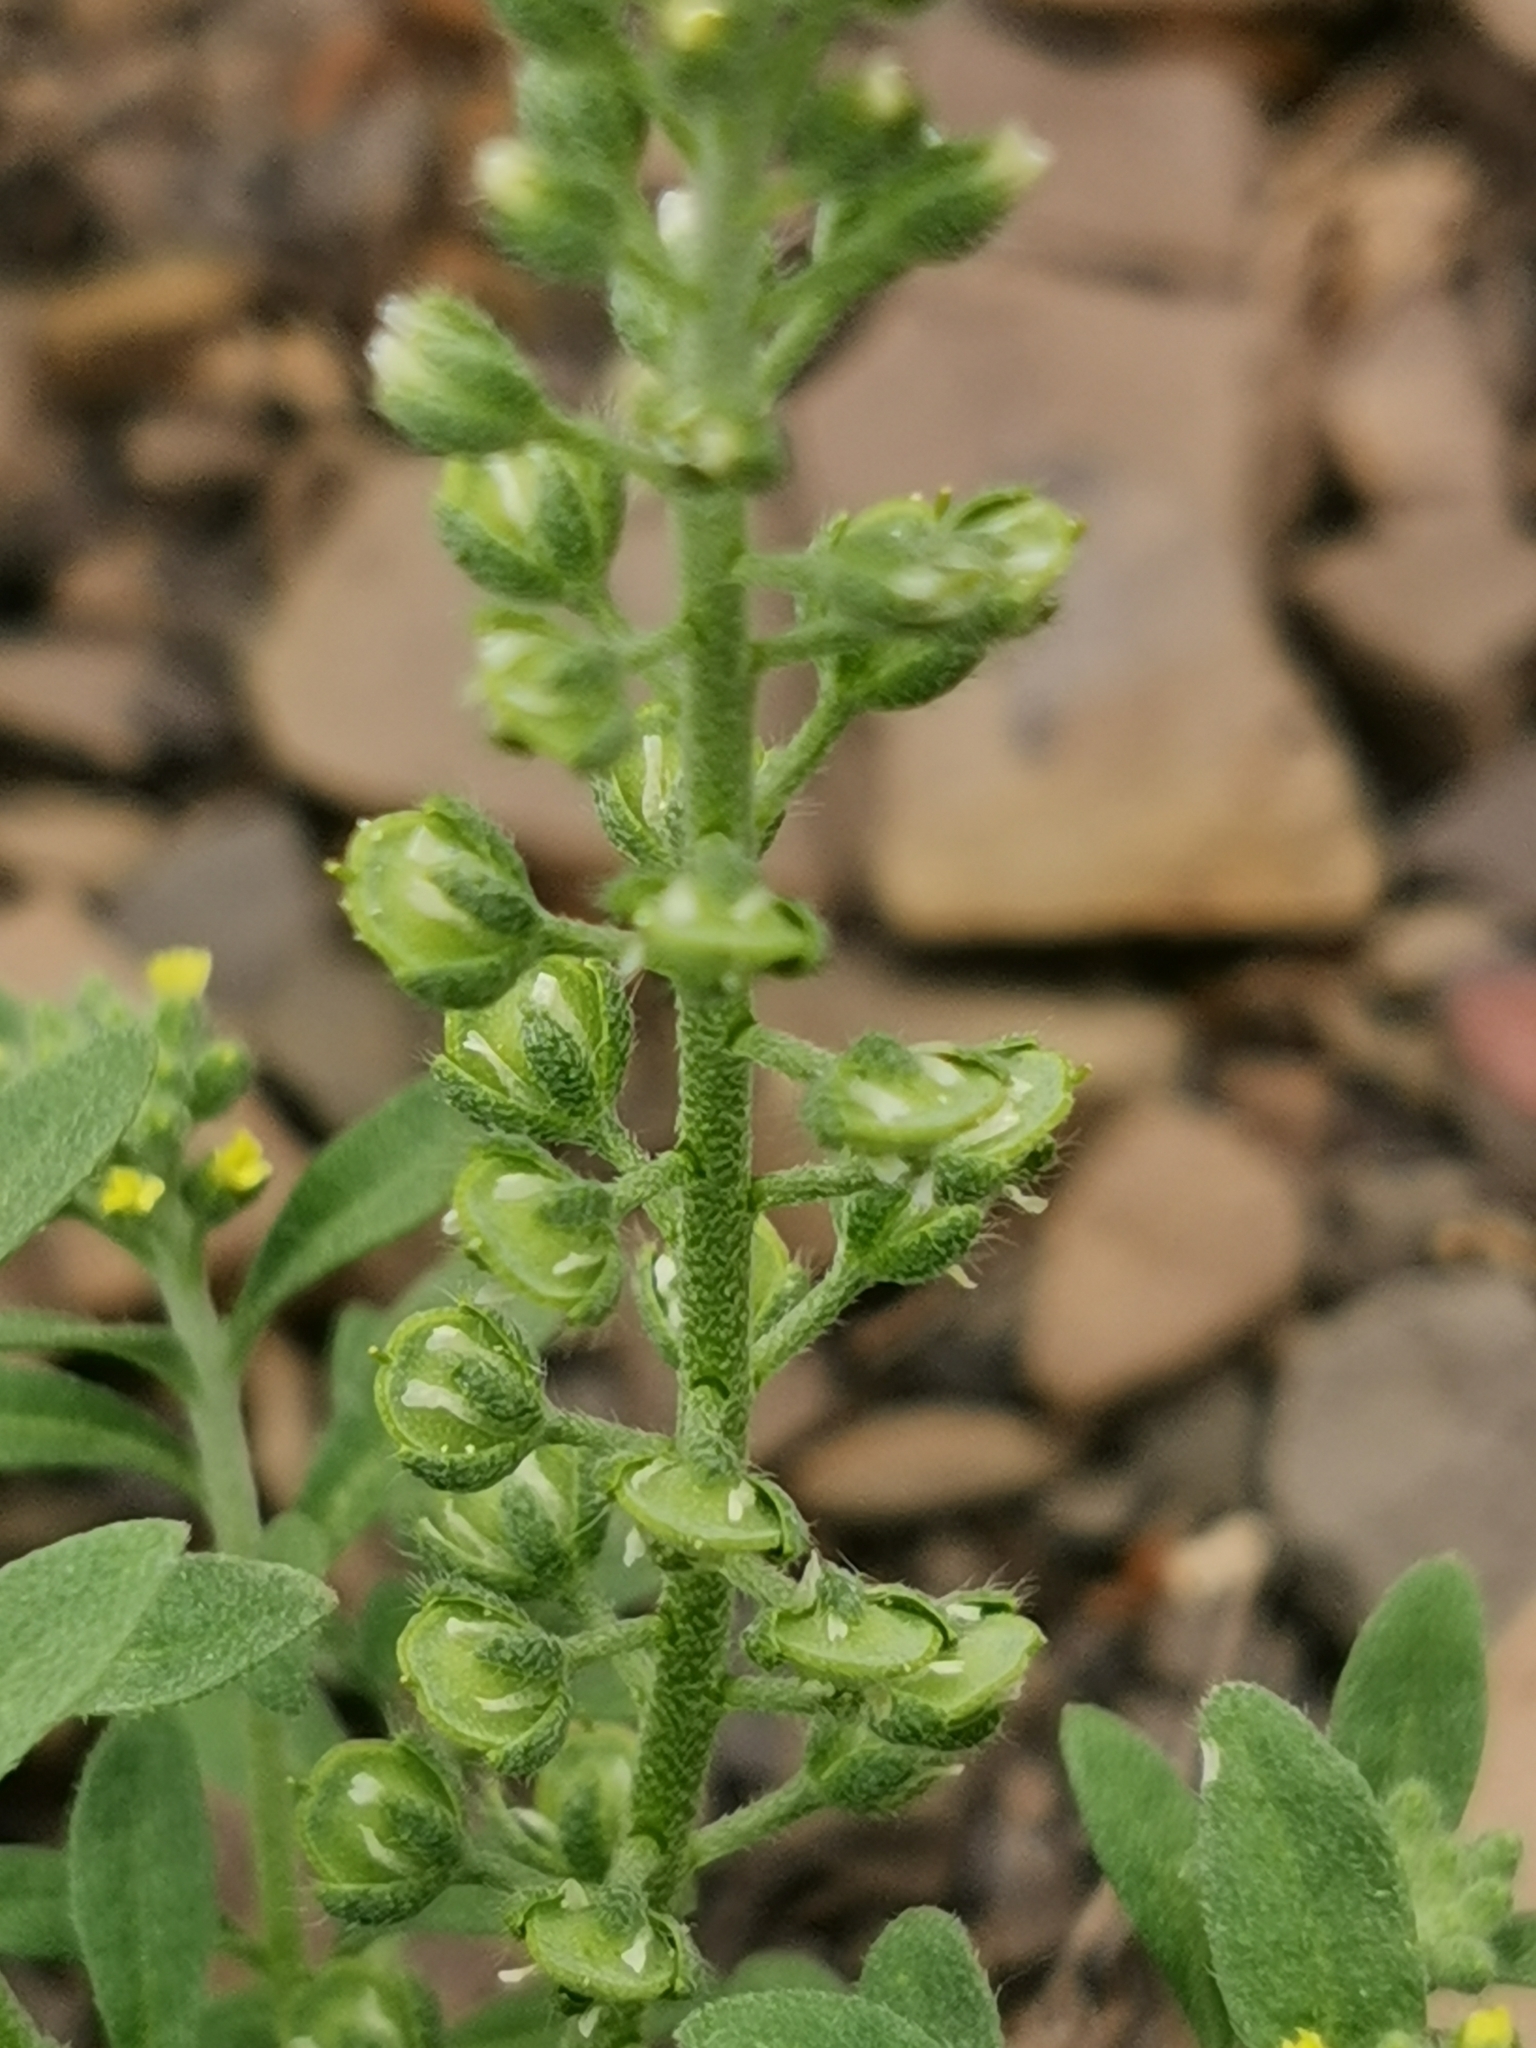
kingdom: Plantae
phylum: Tracheophyta
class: Magnoliopsida
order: Brassicales
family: Brassicaceae
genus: Alyssum
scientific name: Alyssum alyssoides
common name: Small alison
